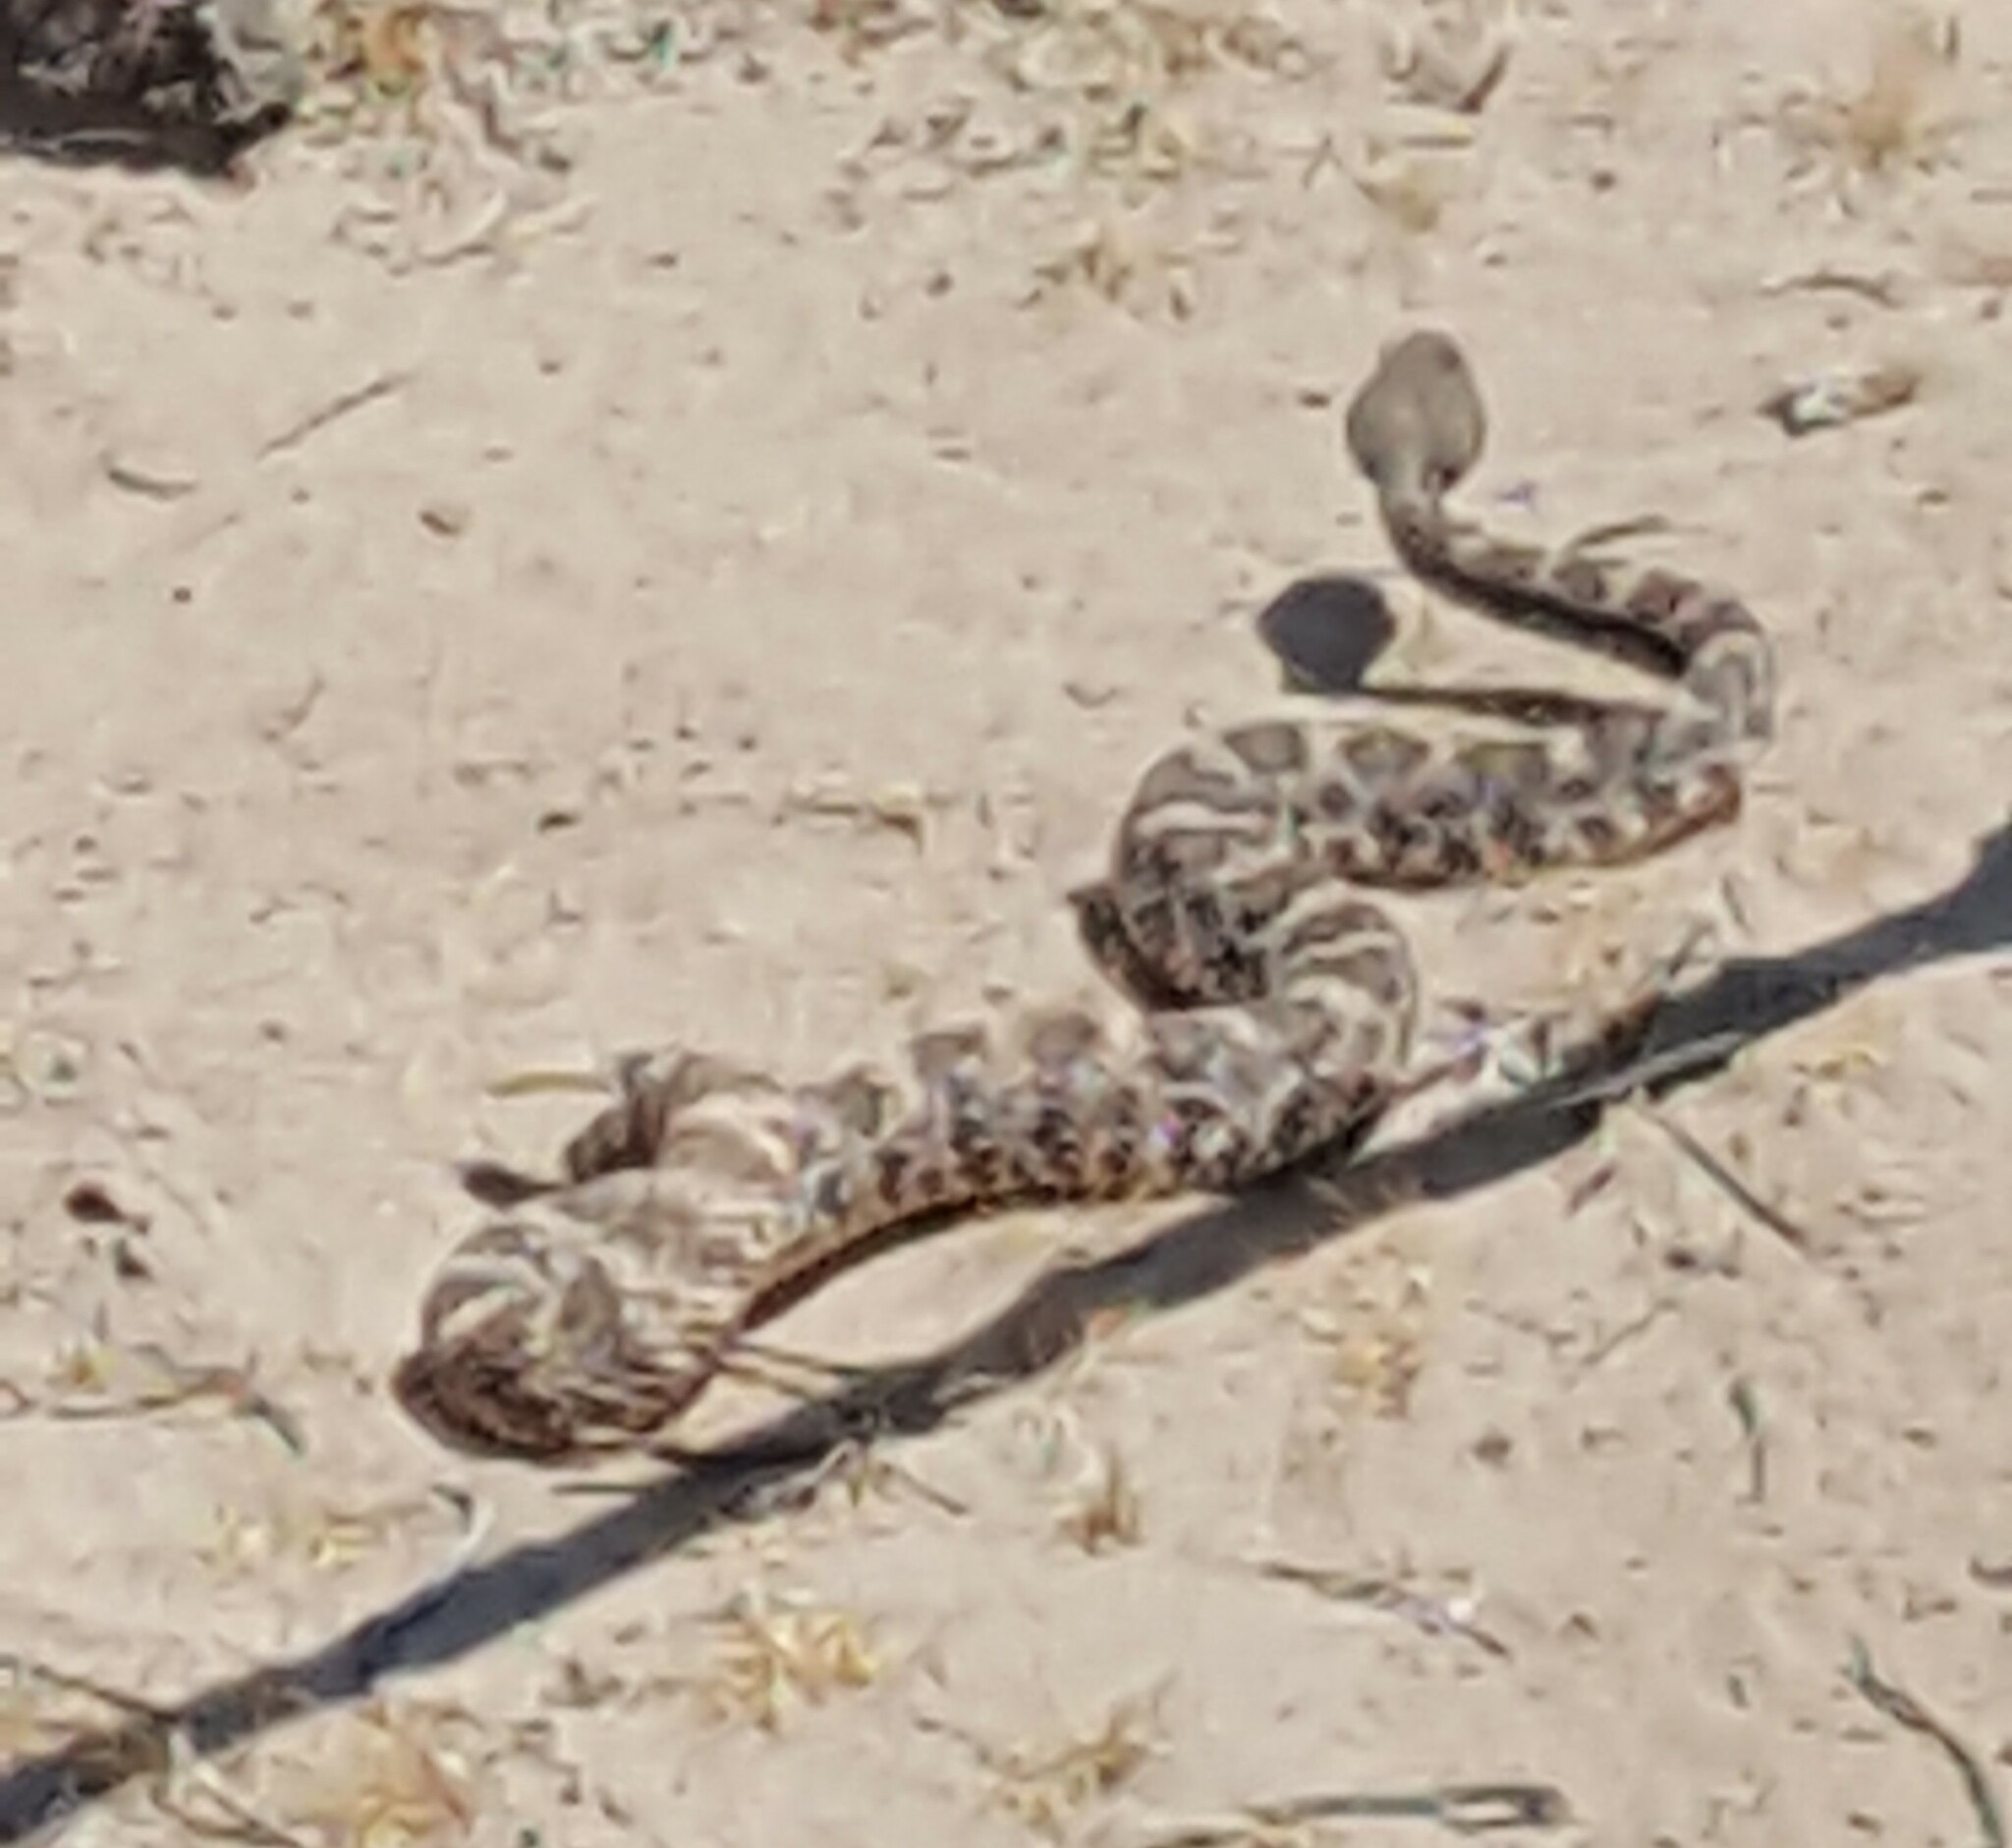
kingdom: Animalia
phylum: Chordata
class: Squamata
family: Viperidae
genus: Crotalus
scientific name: Crotalus pyrrhus
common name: Southwestern speckled rattlesnake
